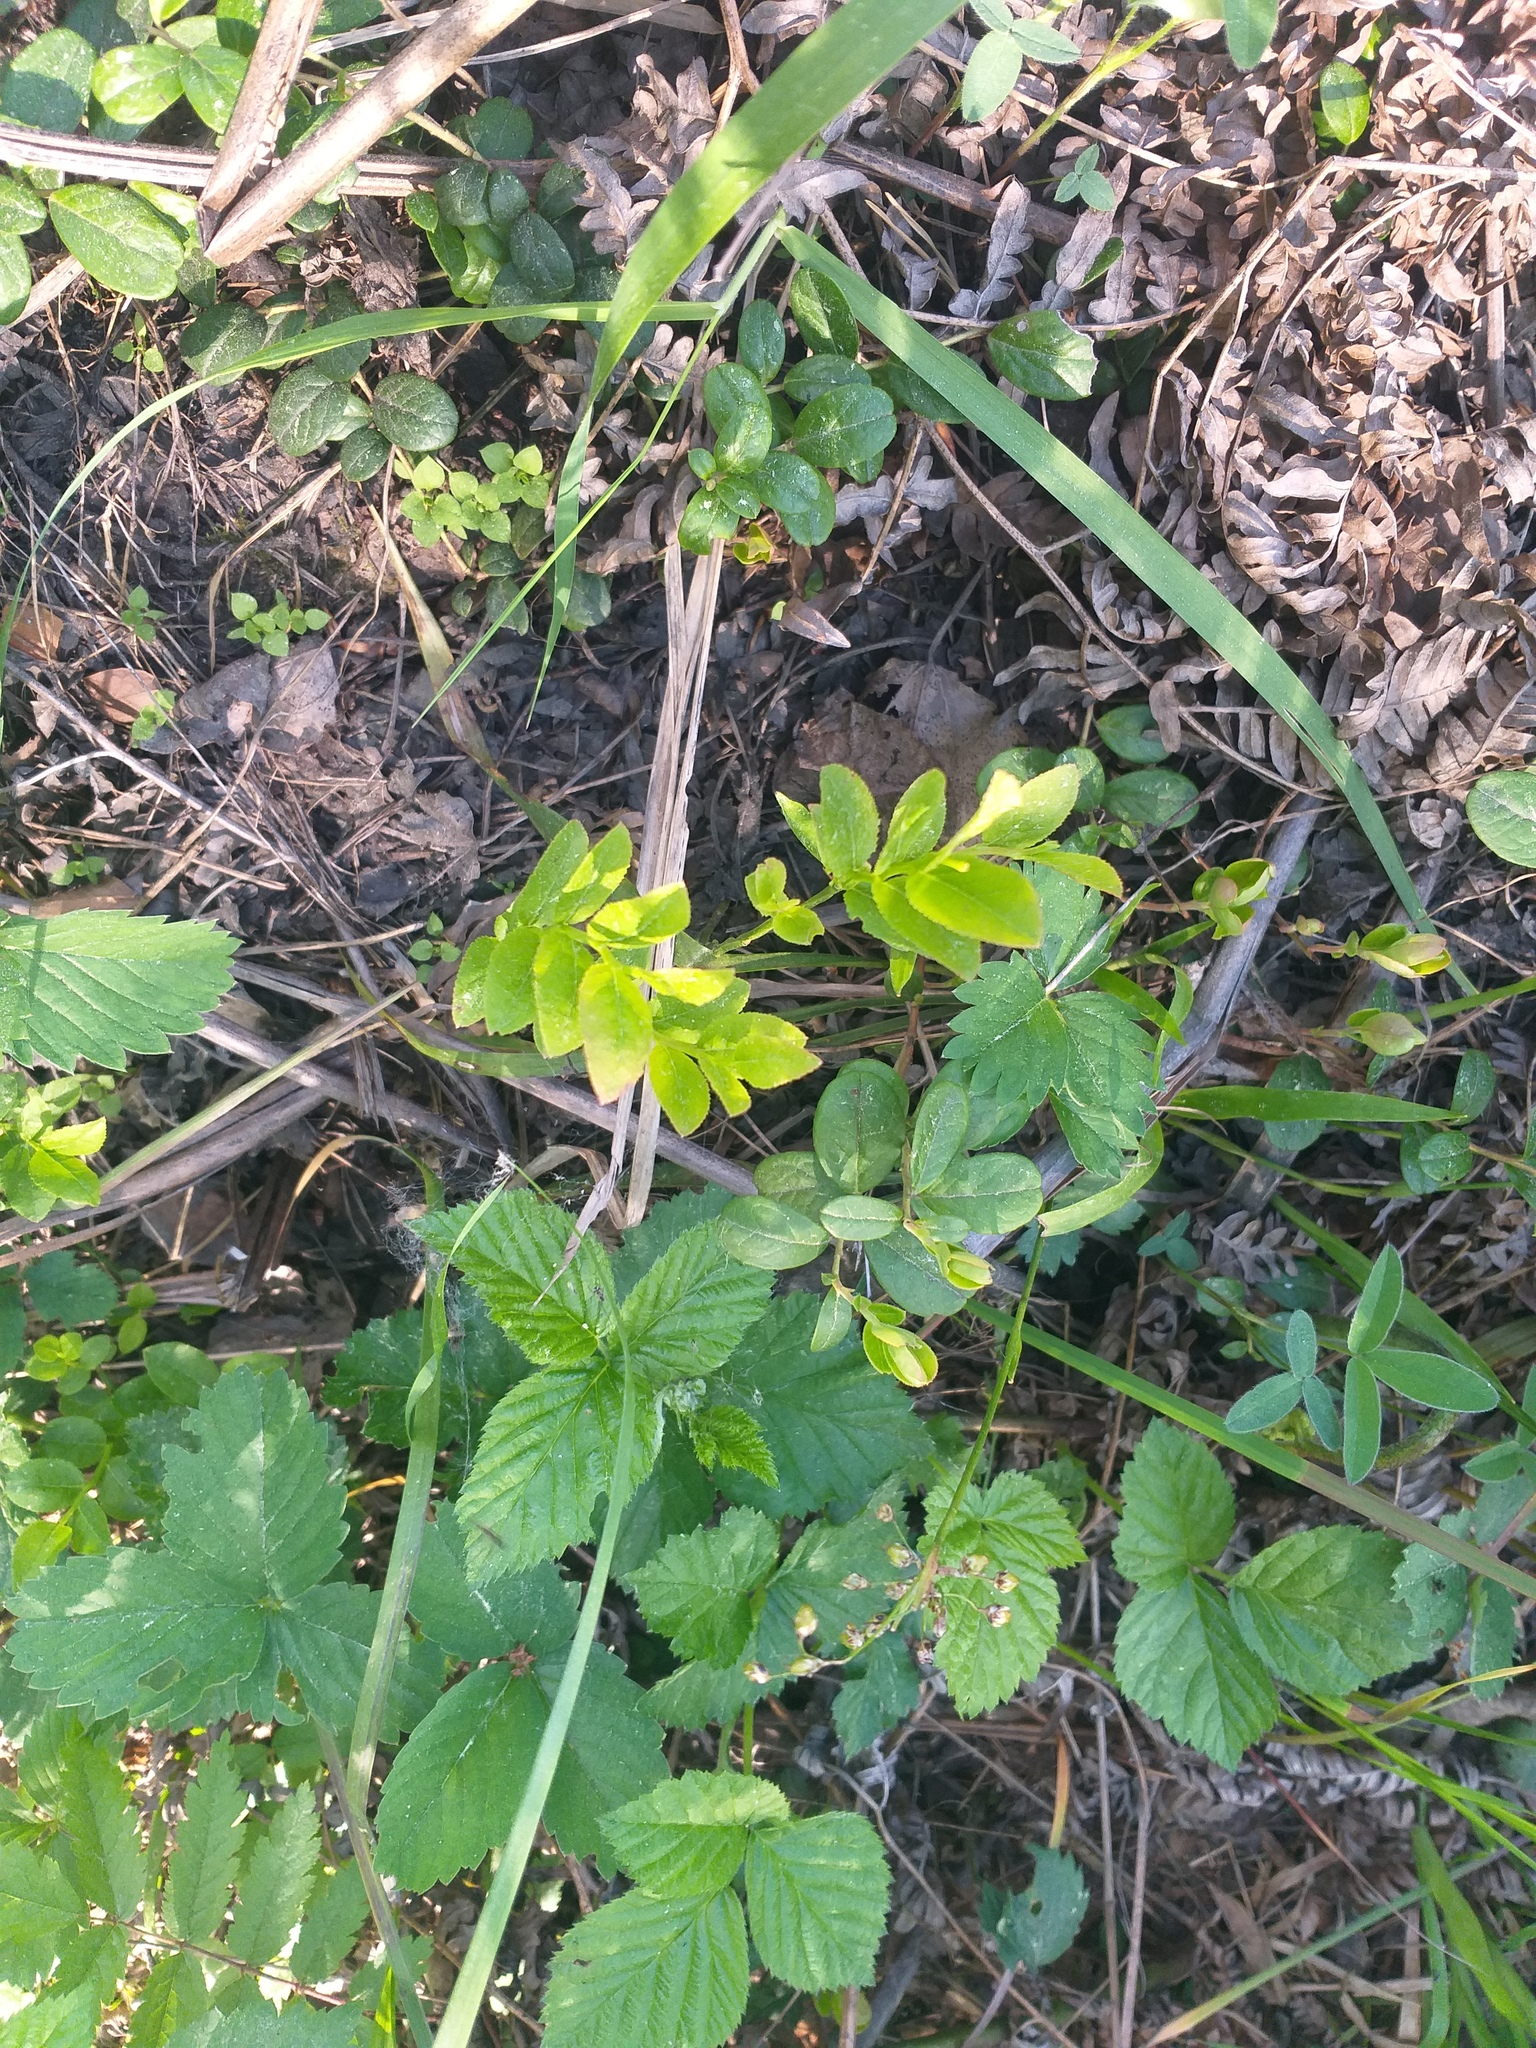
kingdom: Plantae
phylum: Tracheophyta
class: Magnoliopsida
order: Ericales
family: Ericaceae
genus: Vaccinium
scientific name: Vaccinium myrtillus
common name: Bilberry
